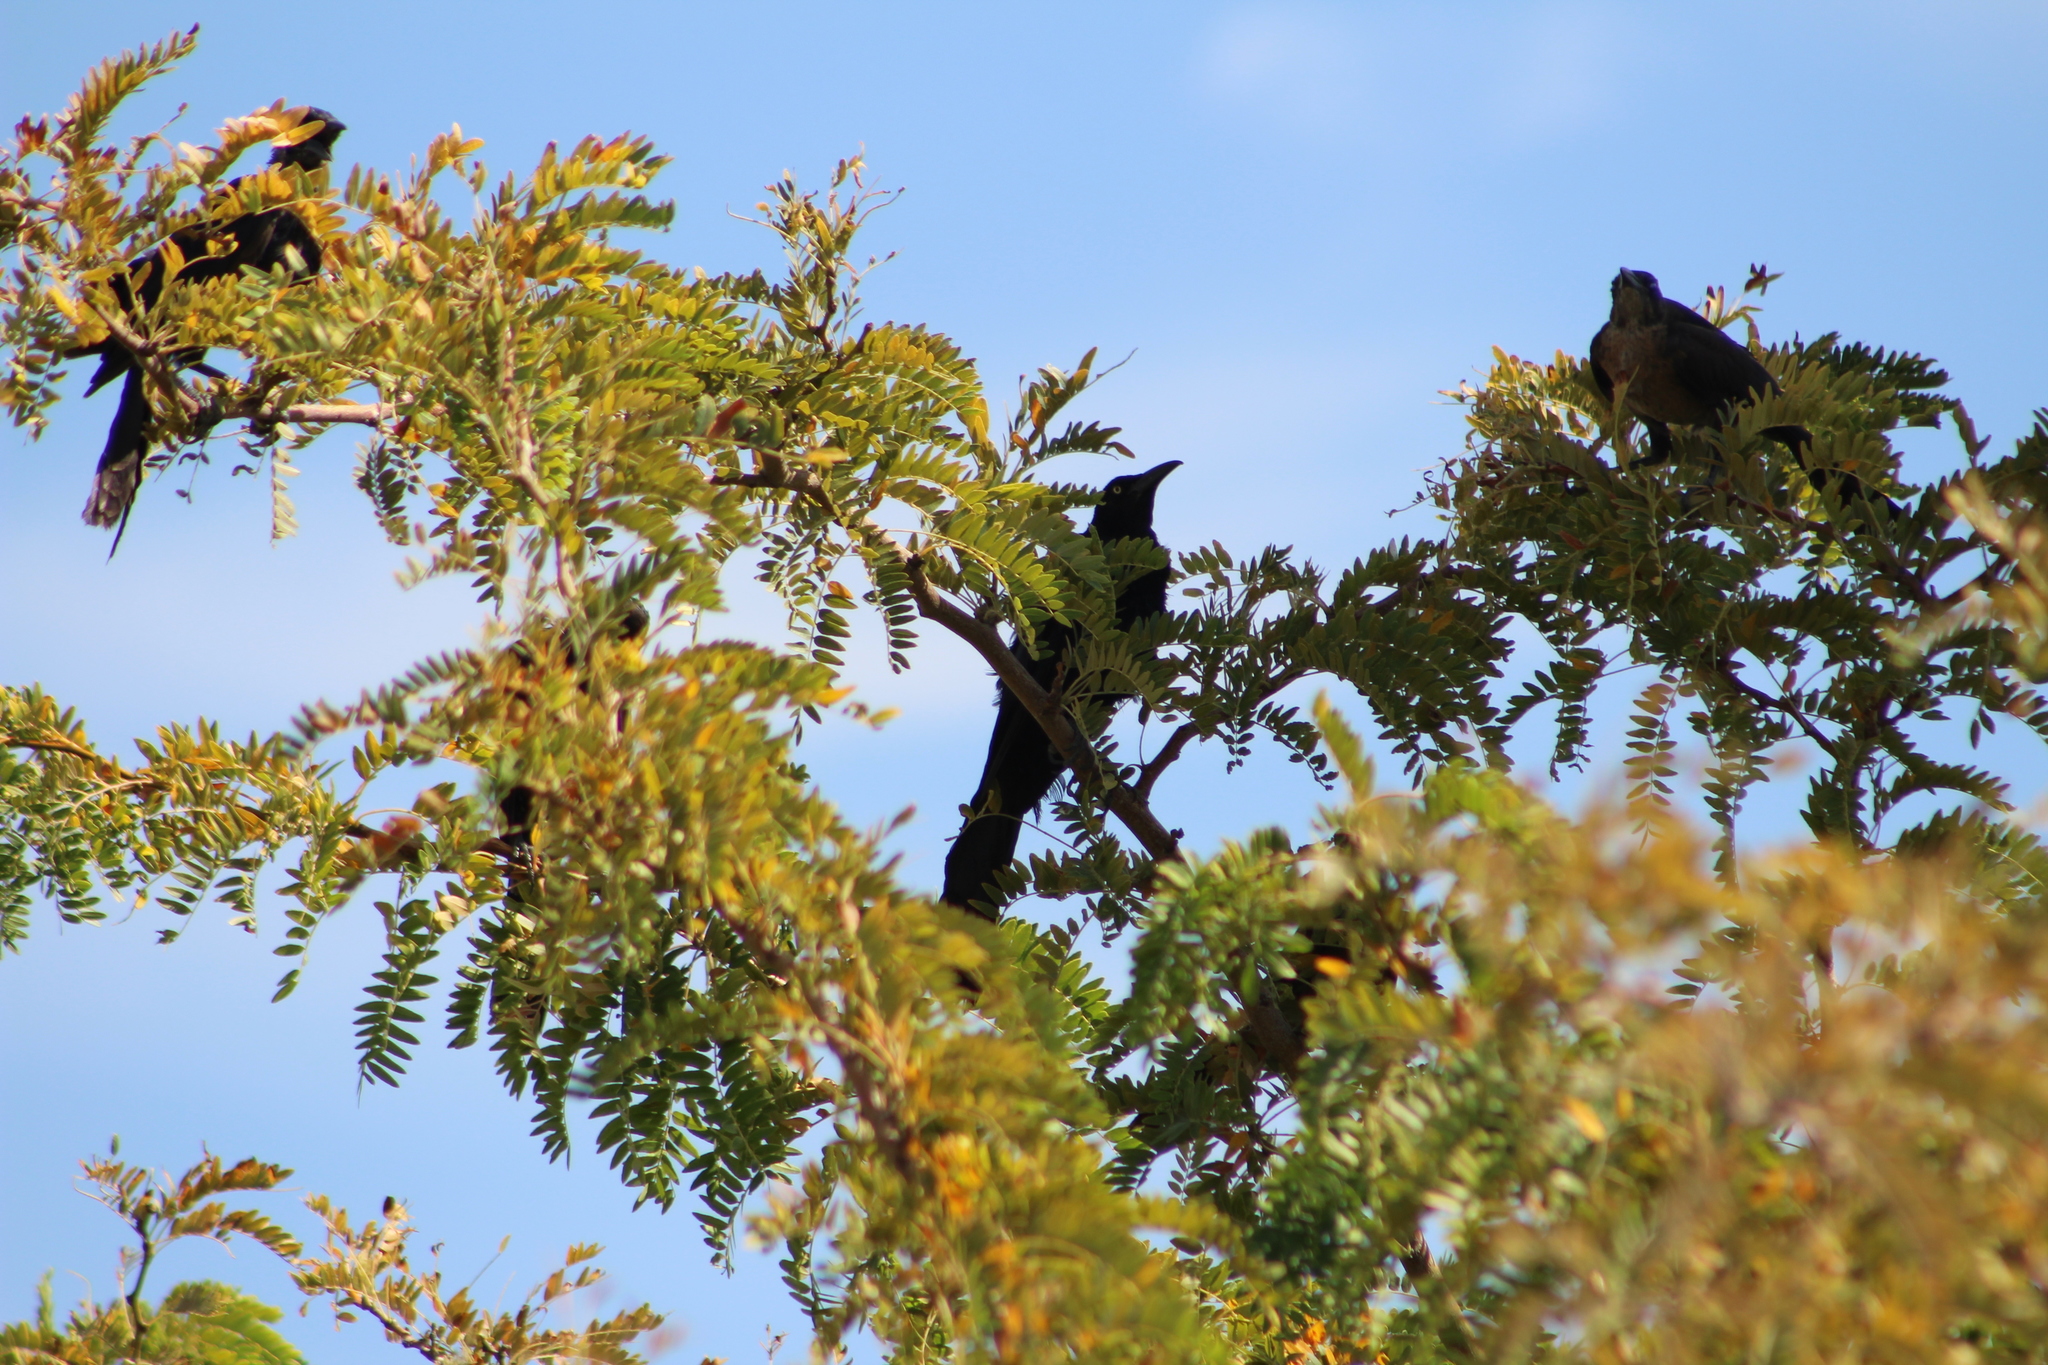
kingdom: Animalia
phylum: Chordata
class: Aves
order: Passeriformes
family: Icteridae
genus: Quiscalus
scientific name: Quiscalus mexicanus
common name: Great-tailed grackle
